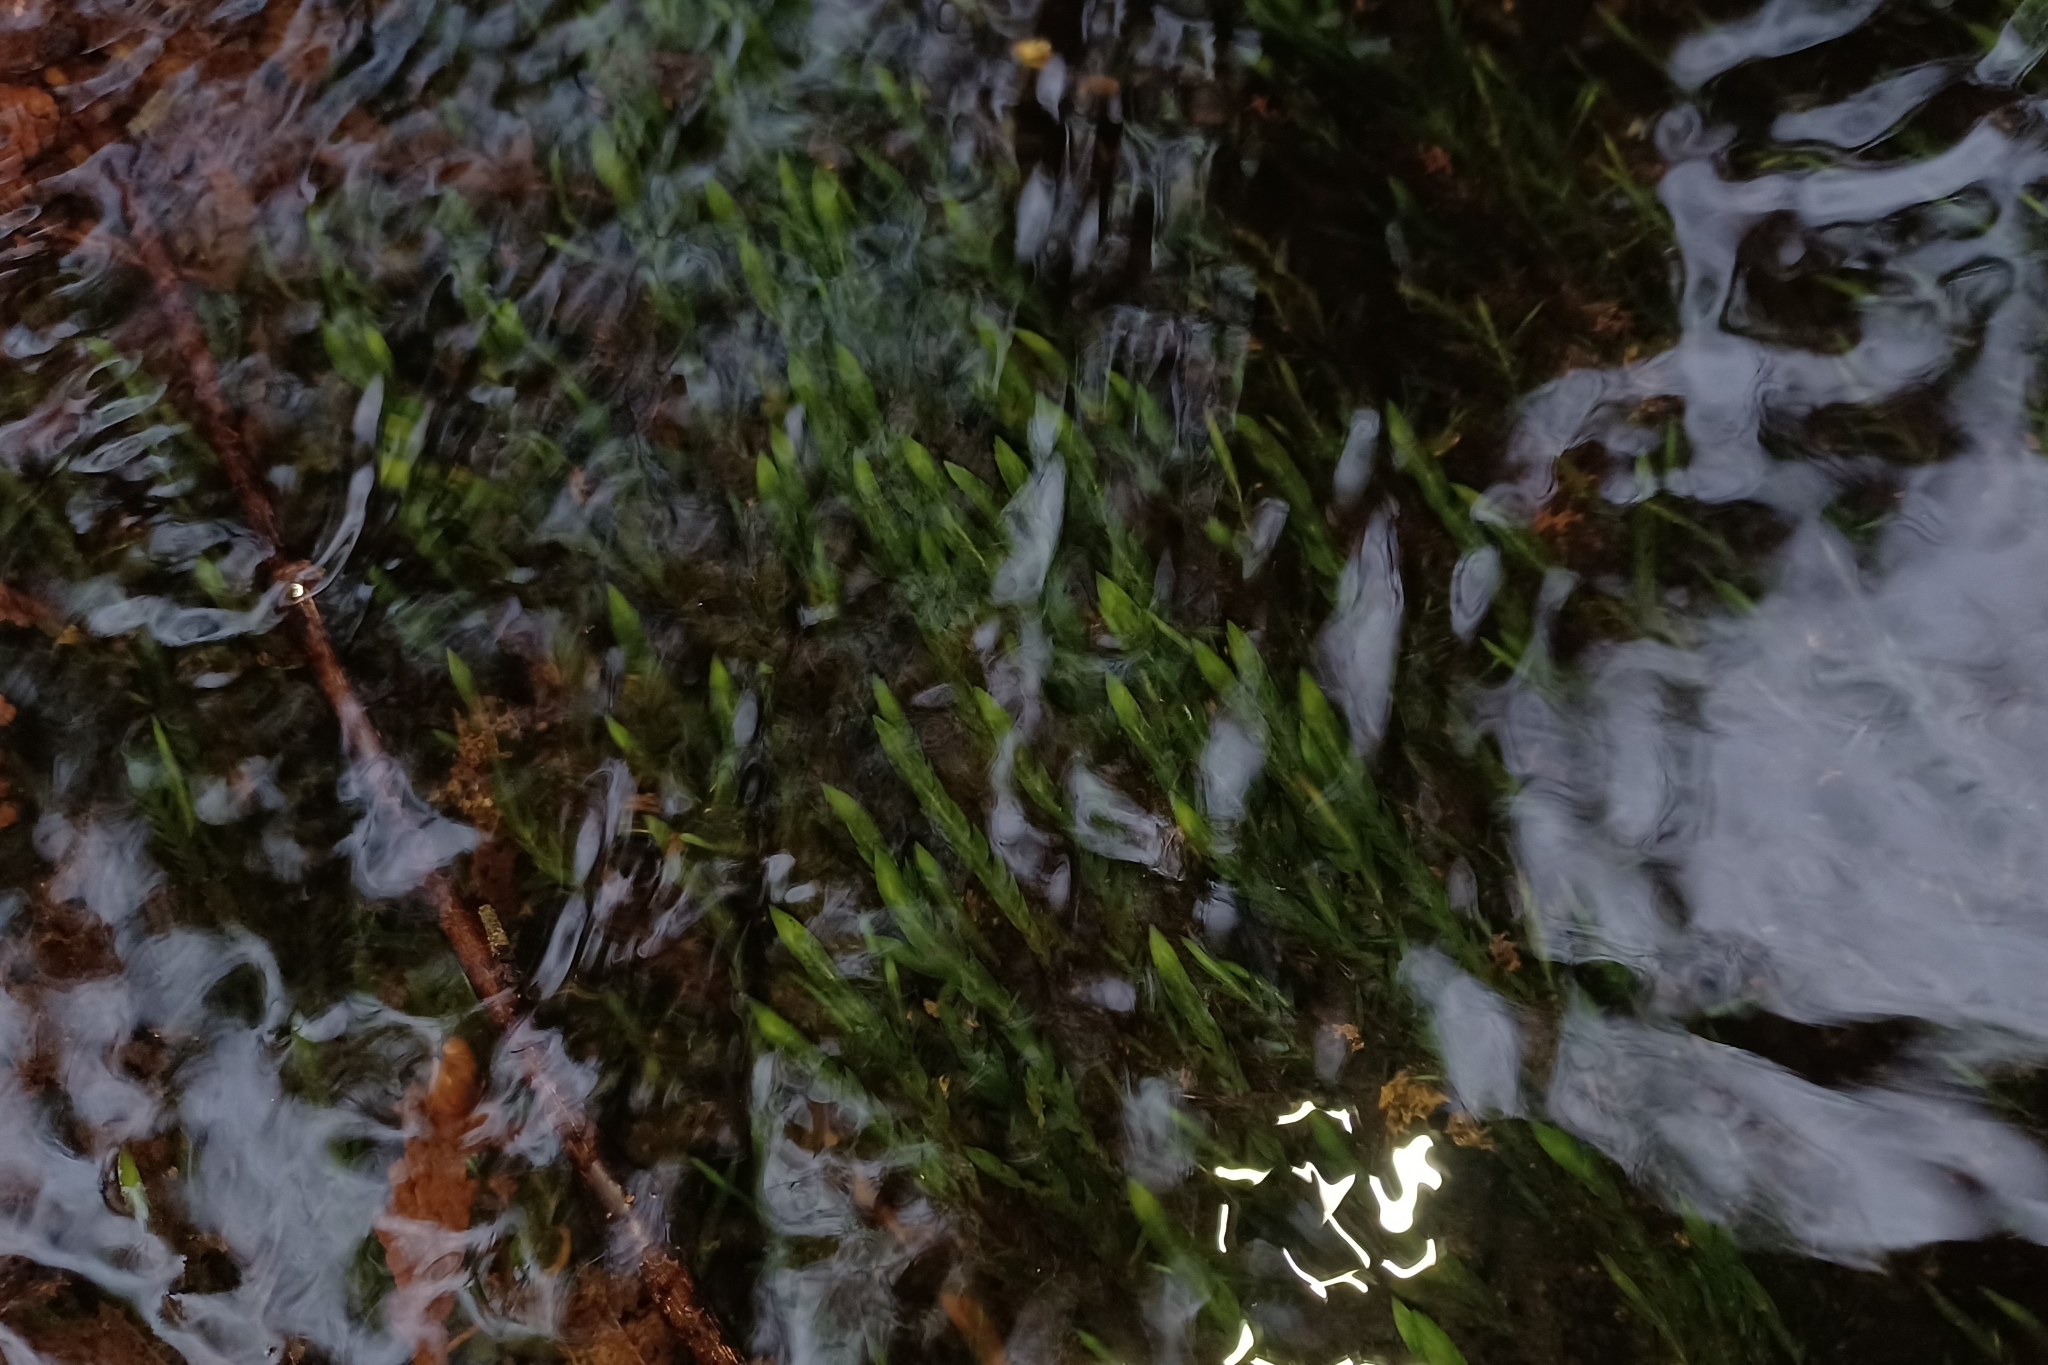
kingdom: Plantae
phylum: Bryophyta
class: Bryopsida
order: Hypnales
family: Fontinalaceae
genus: Fontinalis
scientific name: Fontinalis antipyretica
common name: Greater water-moss
